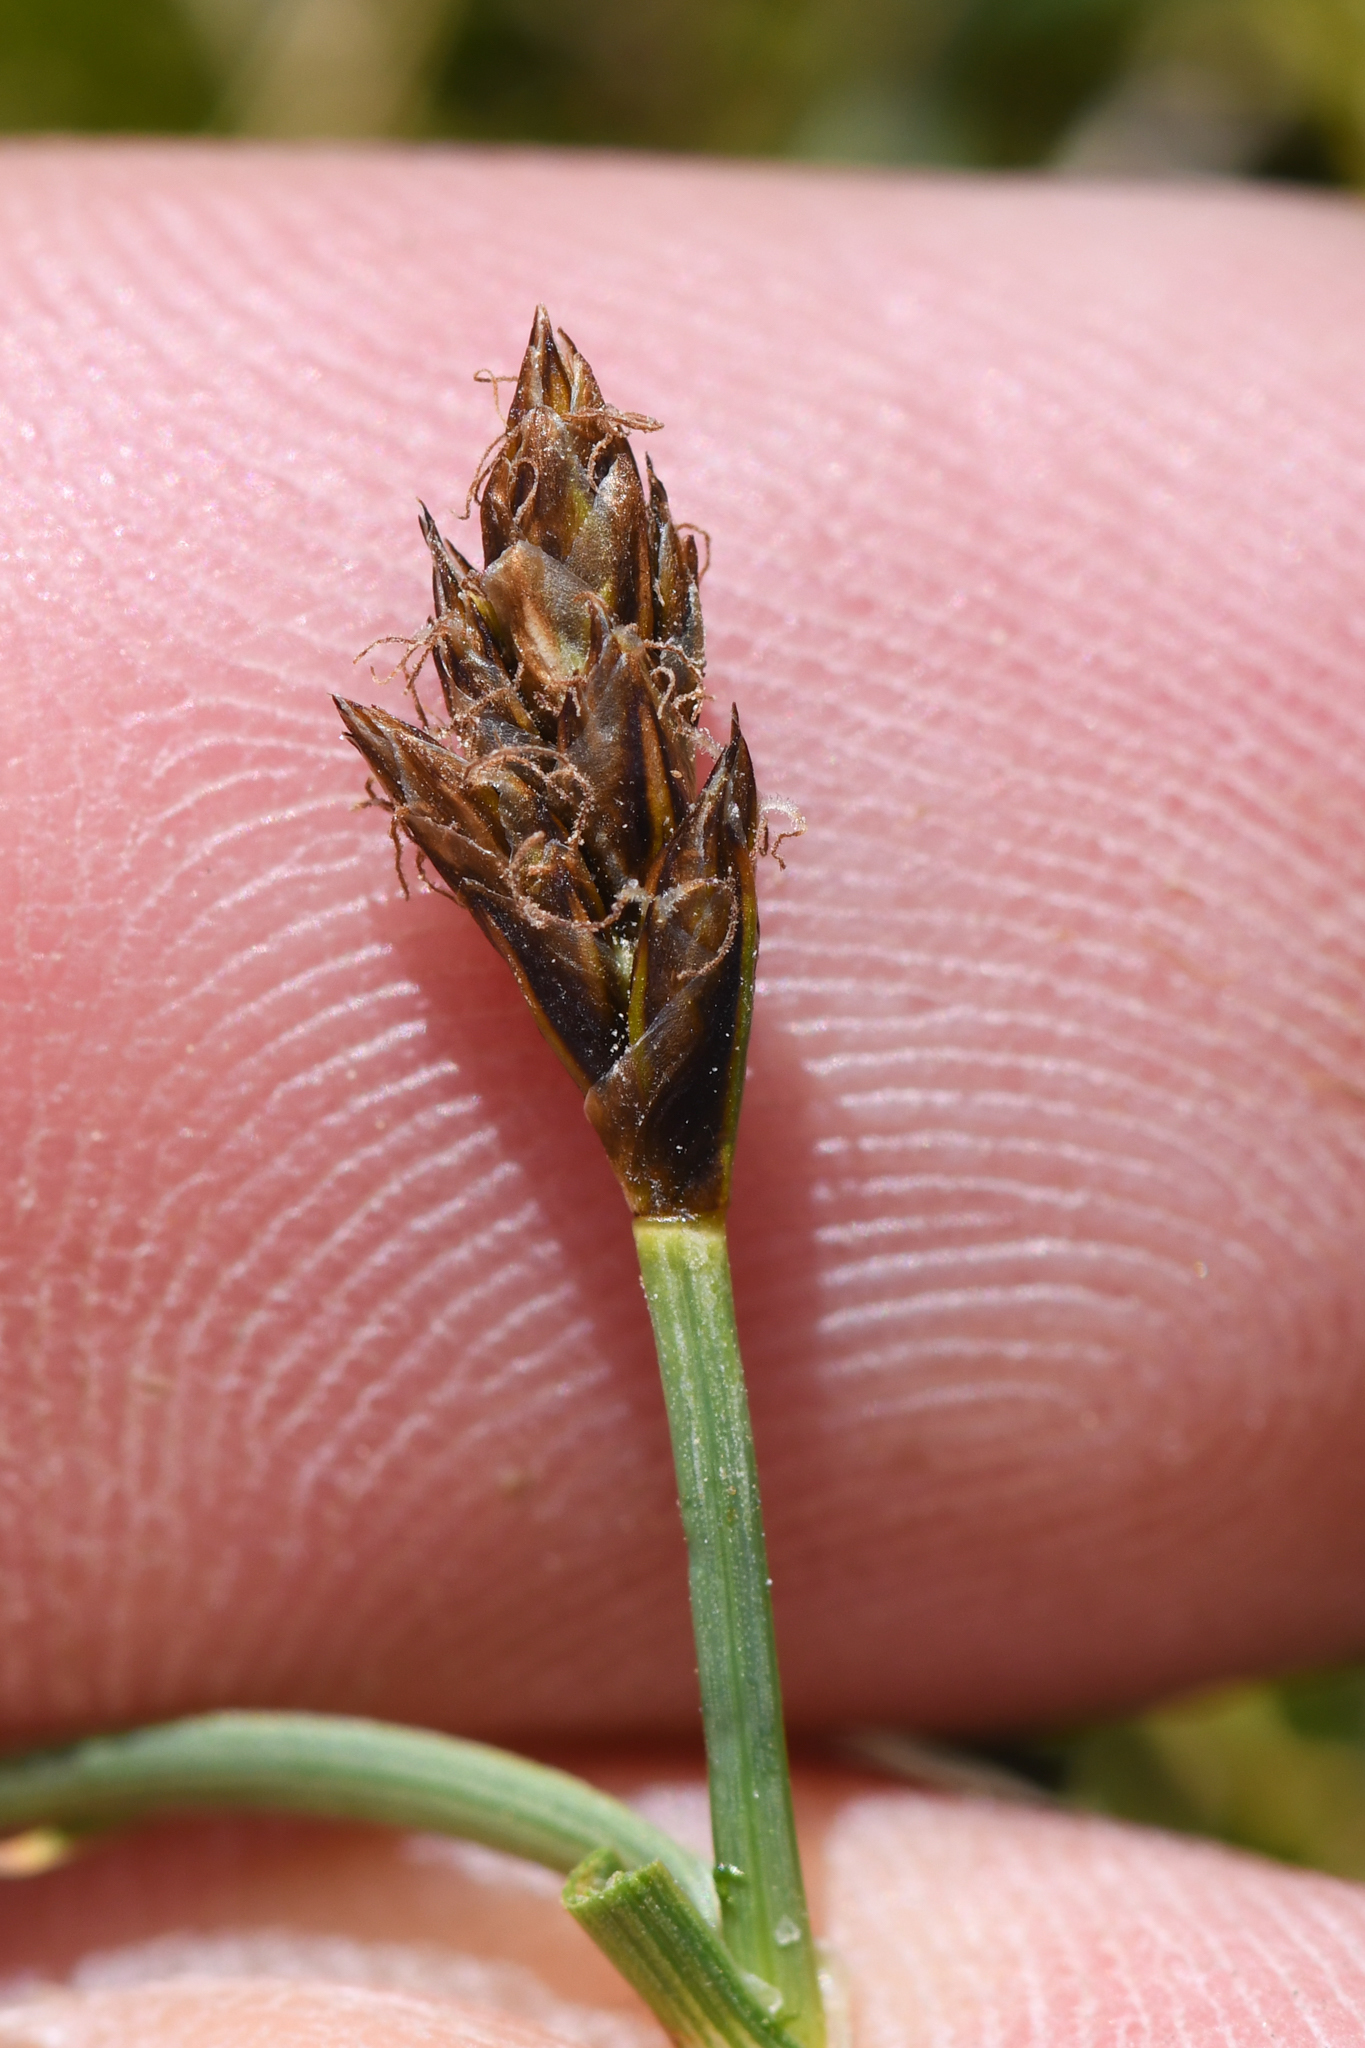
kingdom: Plantae
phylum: Tracheophyta
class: Liliopsida
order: Poales
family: Cyperaceae
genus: Carex
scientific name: Carex incurviformis
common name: Coastal sand sedge
